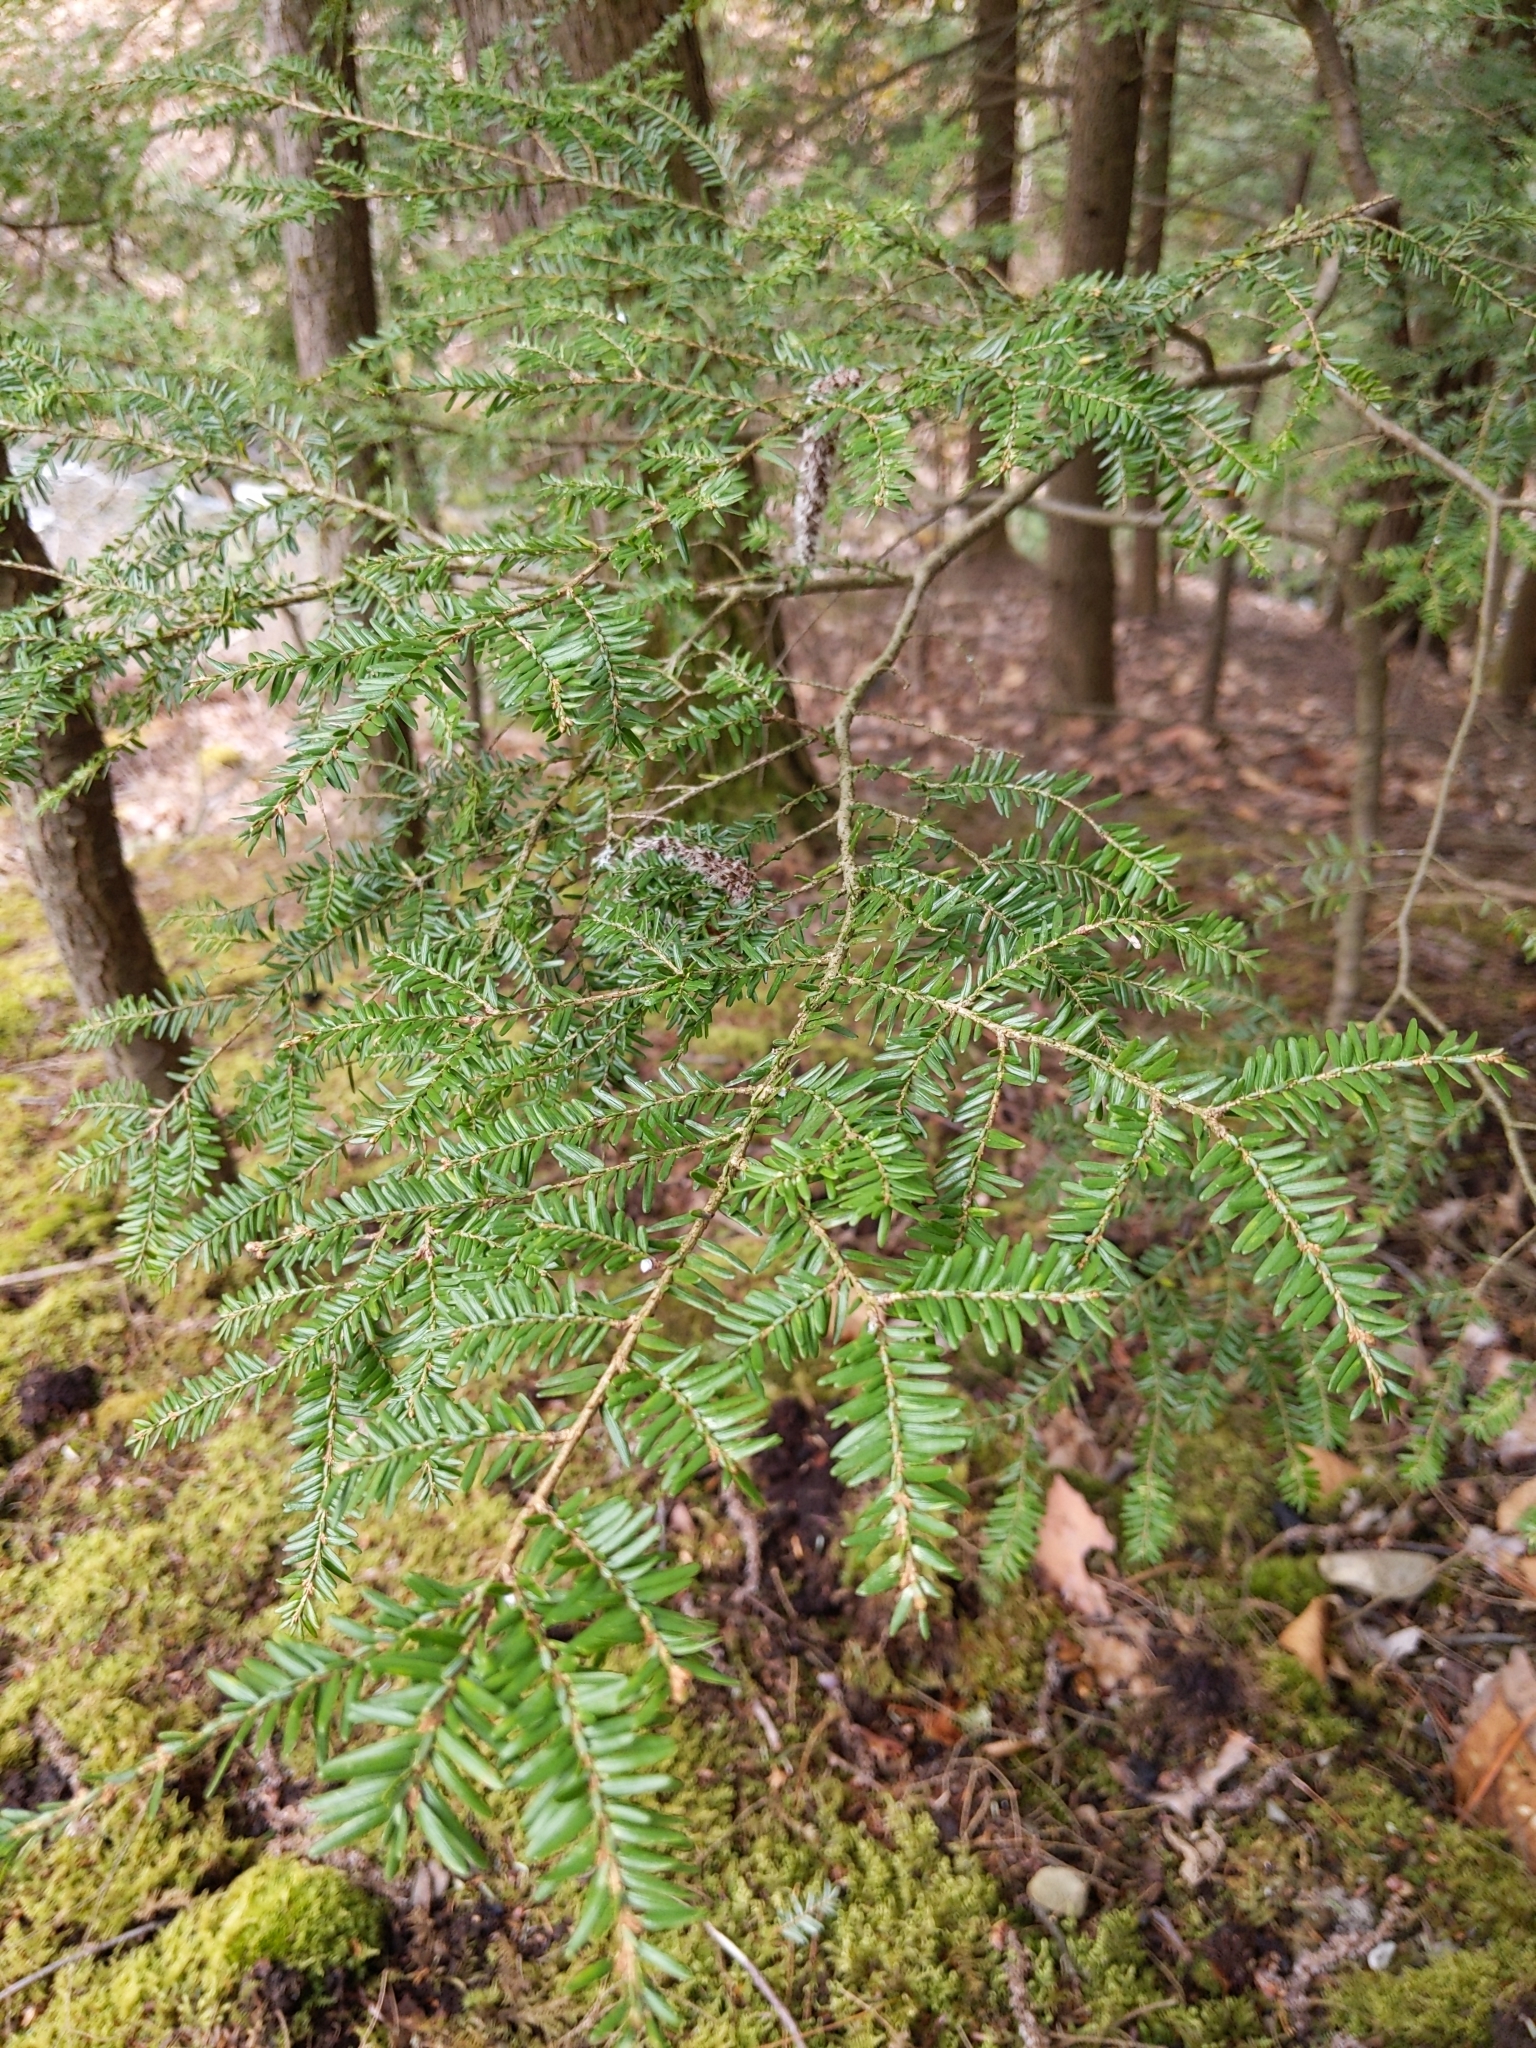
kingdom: Plantae
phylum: Tracheophyta
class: Pinopsida
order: Pinales
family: Pinaceae
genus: Tsuga
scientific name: Tsuga canadensis
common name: Eastern hemlock
